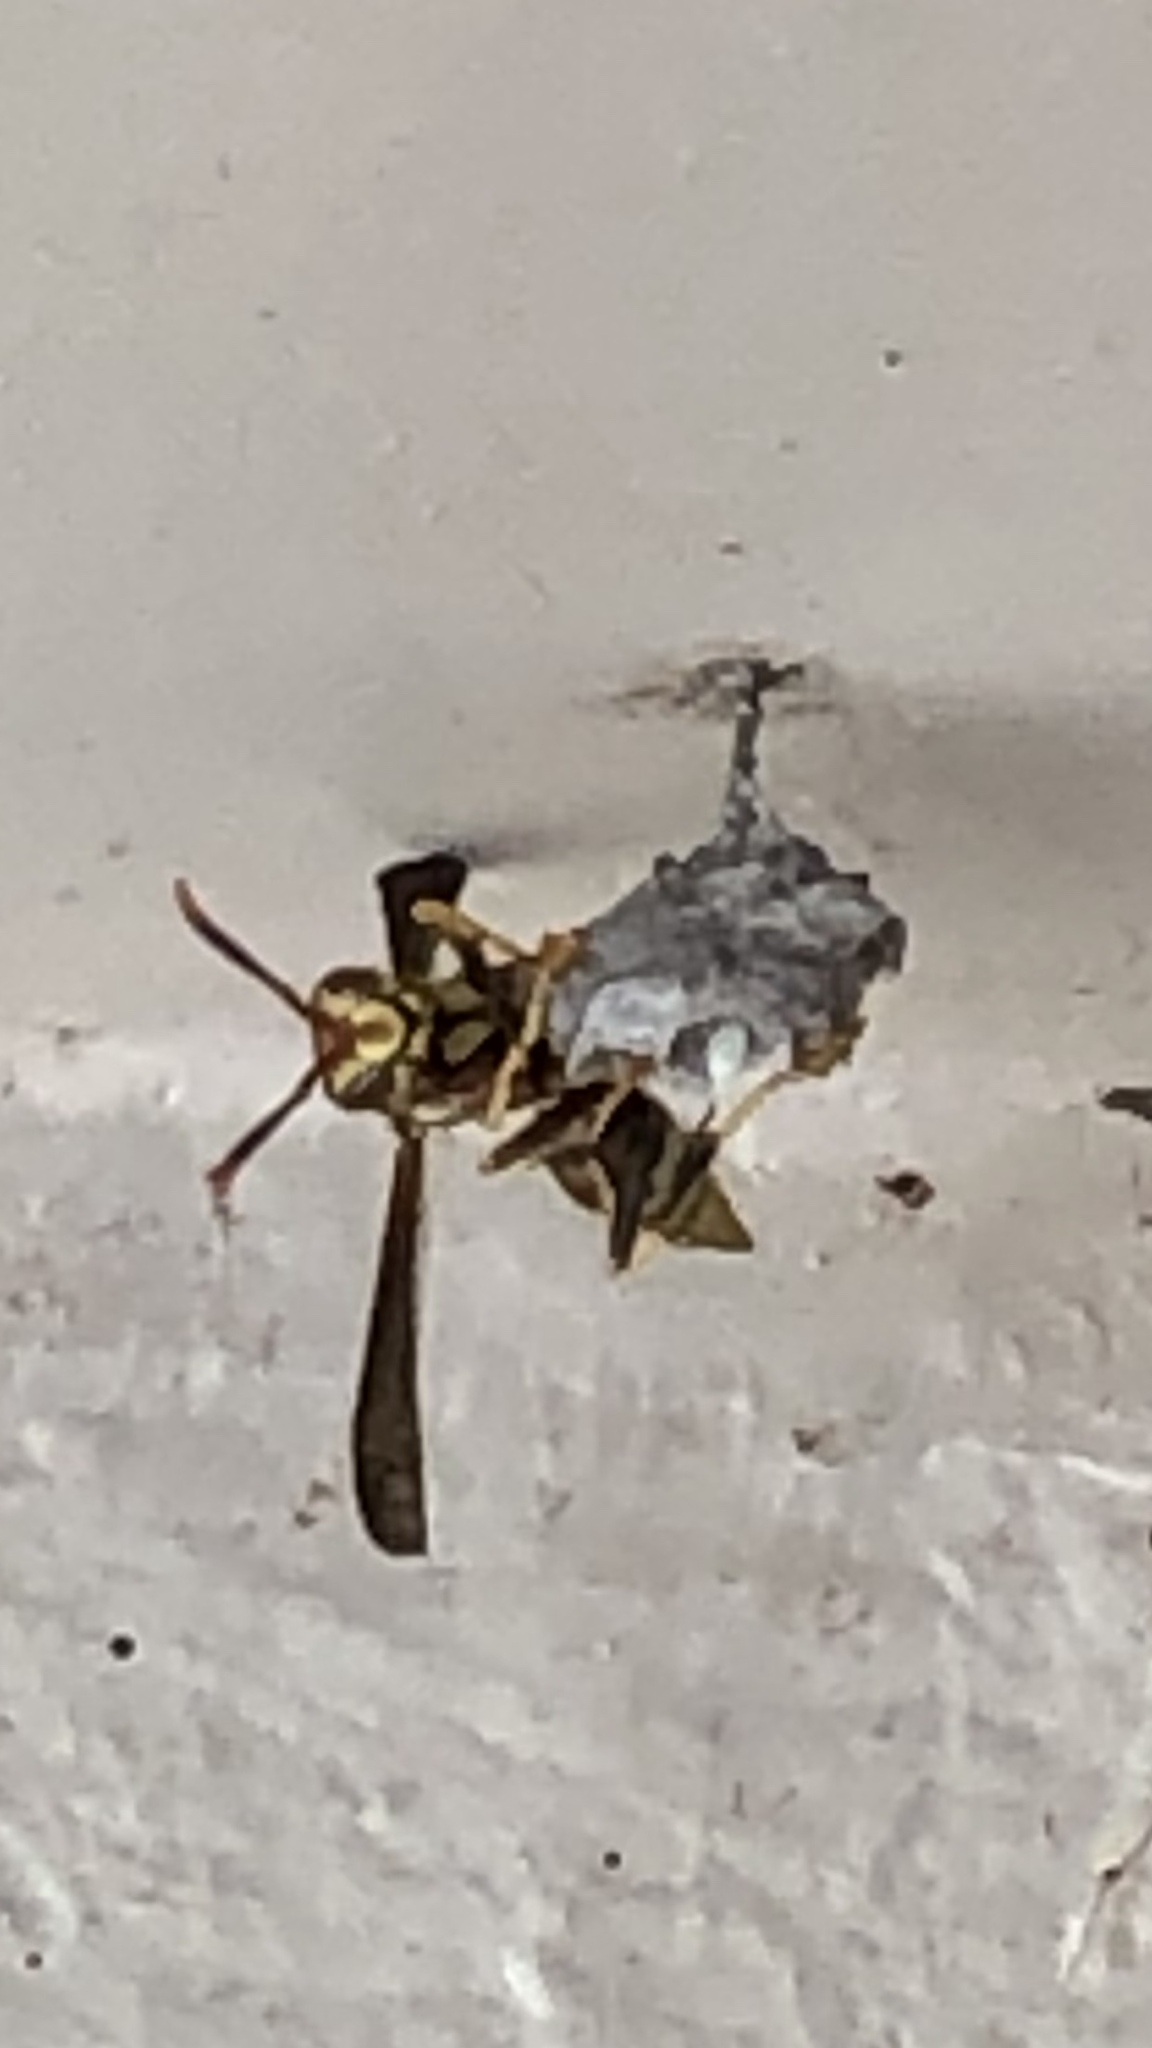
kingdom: Animalia
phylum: Arthropoda
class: Insecta
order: Hymenoptera
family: Eumenidae
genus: Polistes
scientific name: Polistes exclamans
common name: Paper wasp
